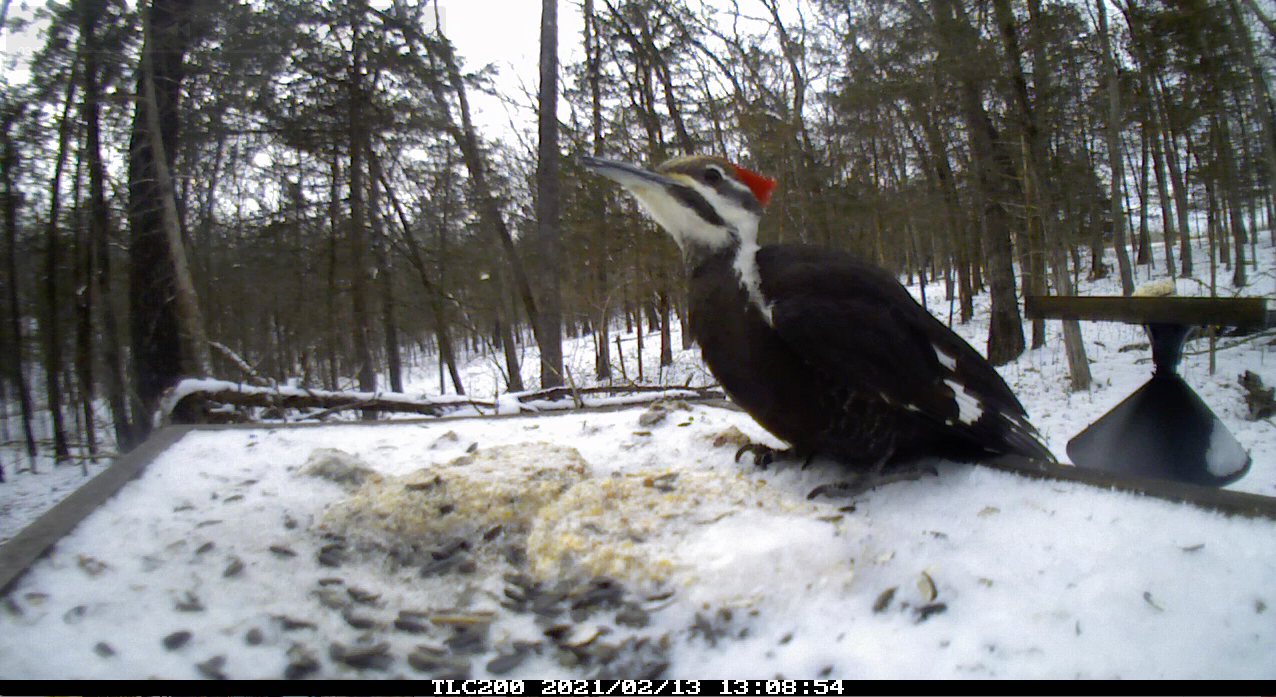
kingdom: Animalia
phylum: Chordata
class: Aves
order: Piciformes
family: Picidae
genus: Dryocopus
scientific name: Dryocopus pileatus
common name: Pileated woodpecker
